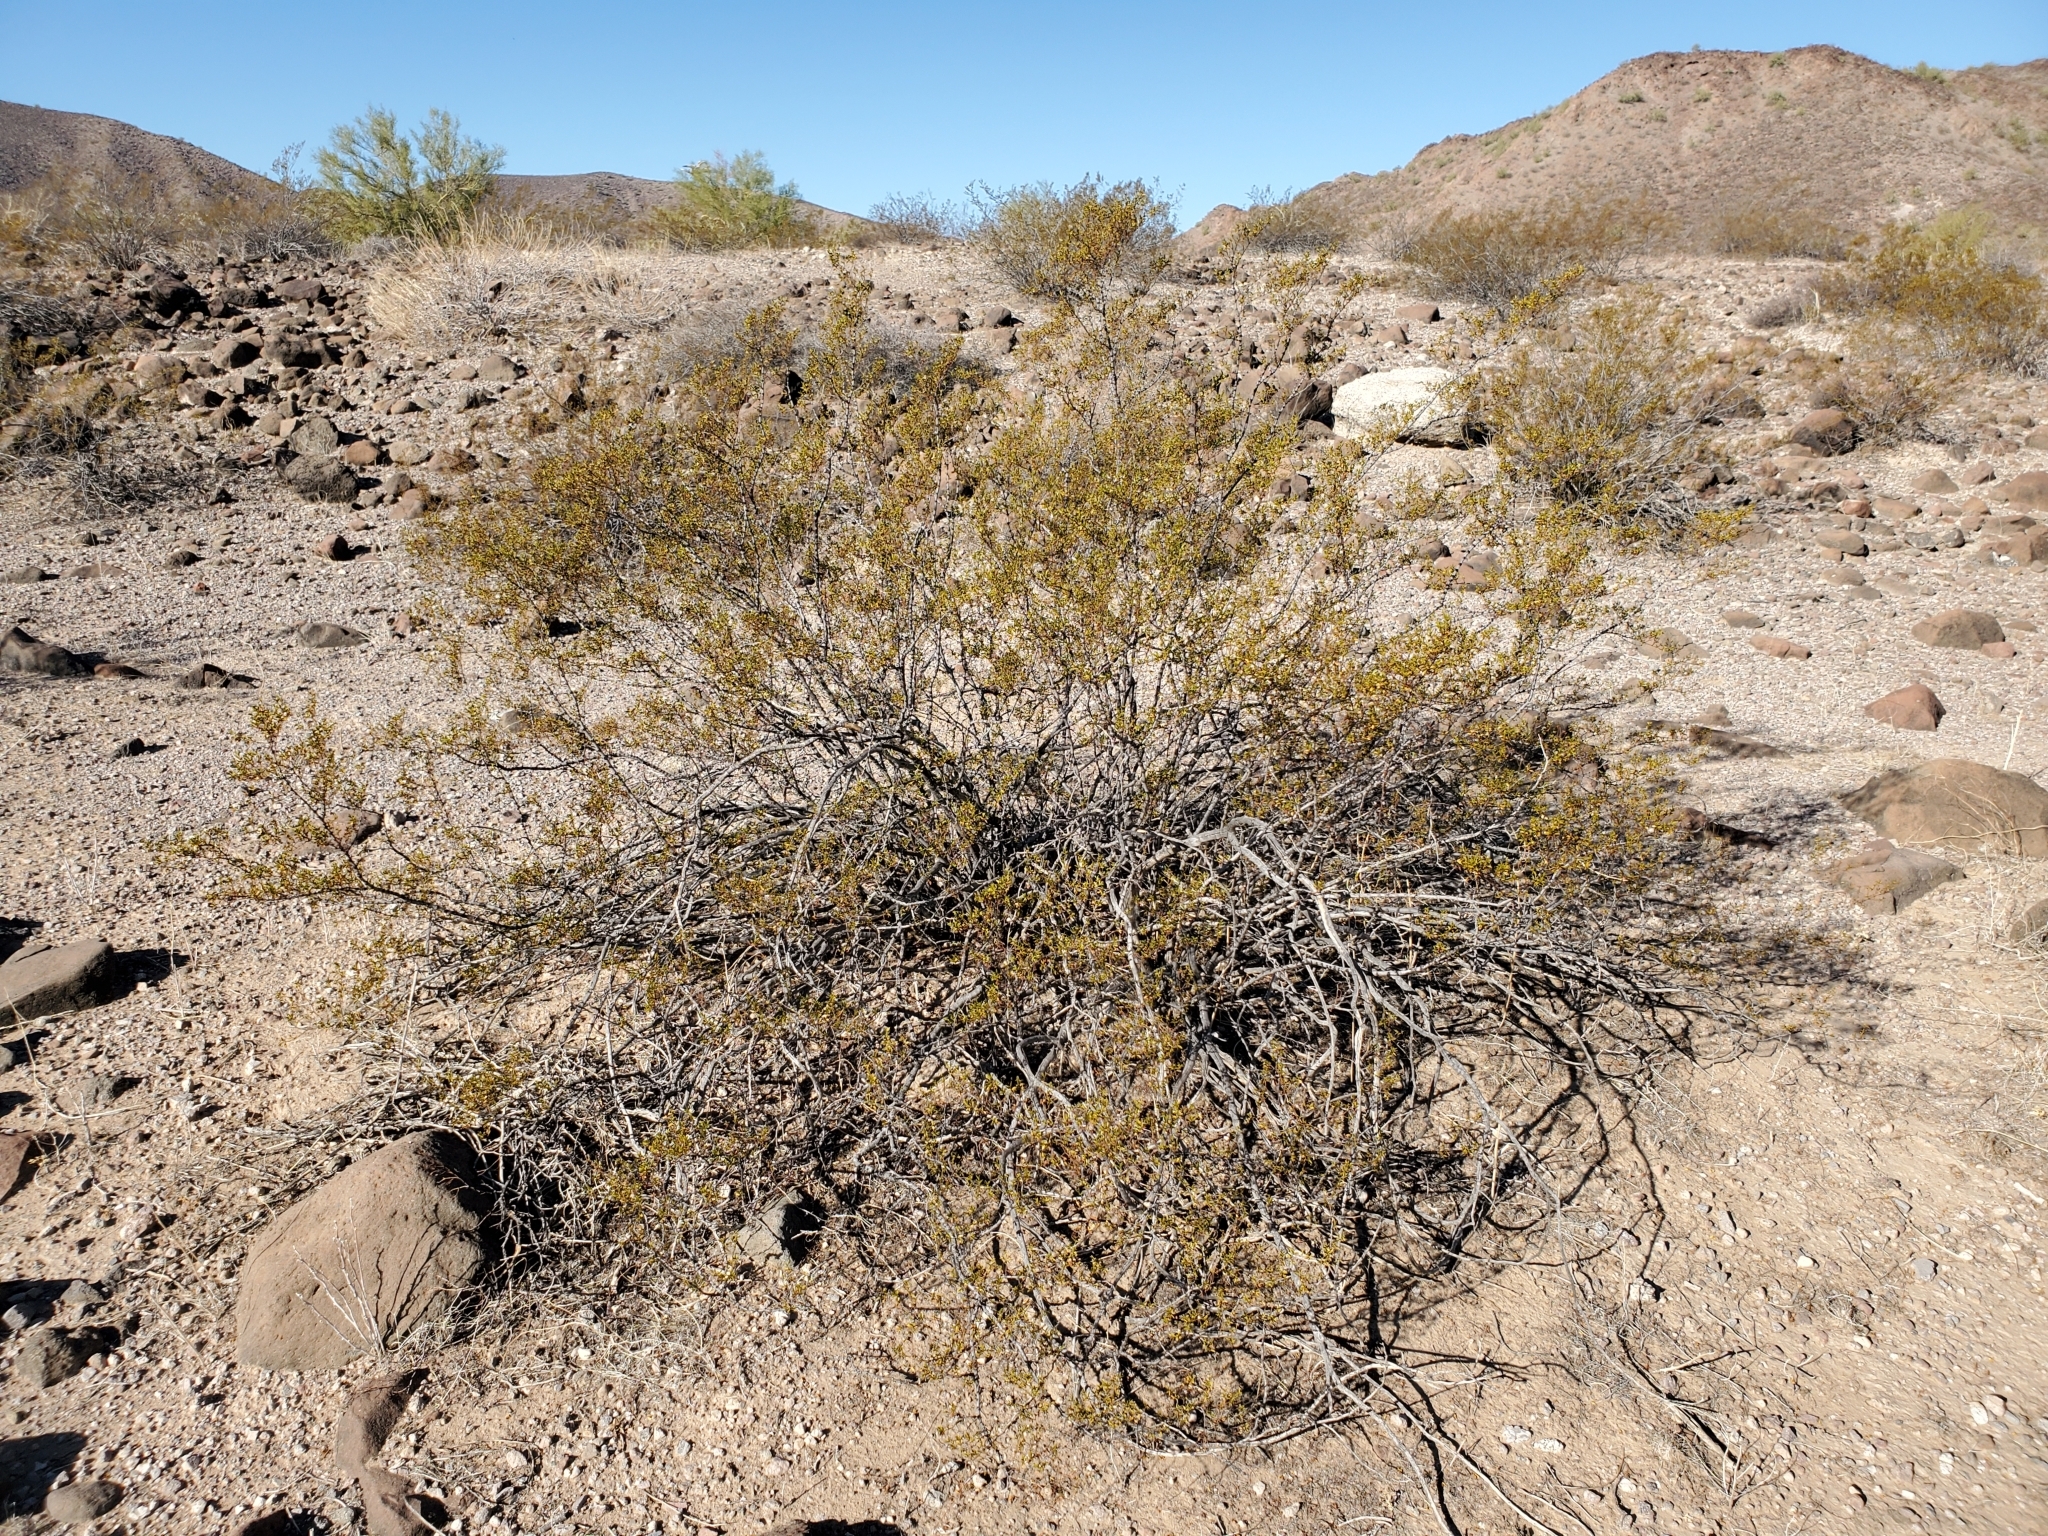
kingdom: Plantae
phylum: Tracheophyta
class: Magnoliopsida
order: Zygophyllales
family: Zygophyllaceae
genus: Larrea
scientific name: Larrea tridentata
